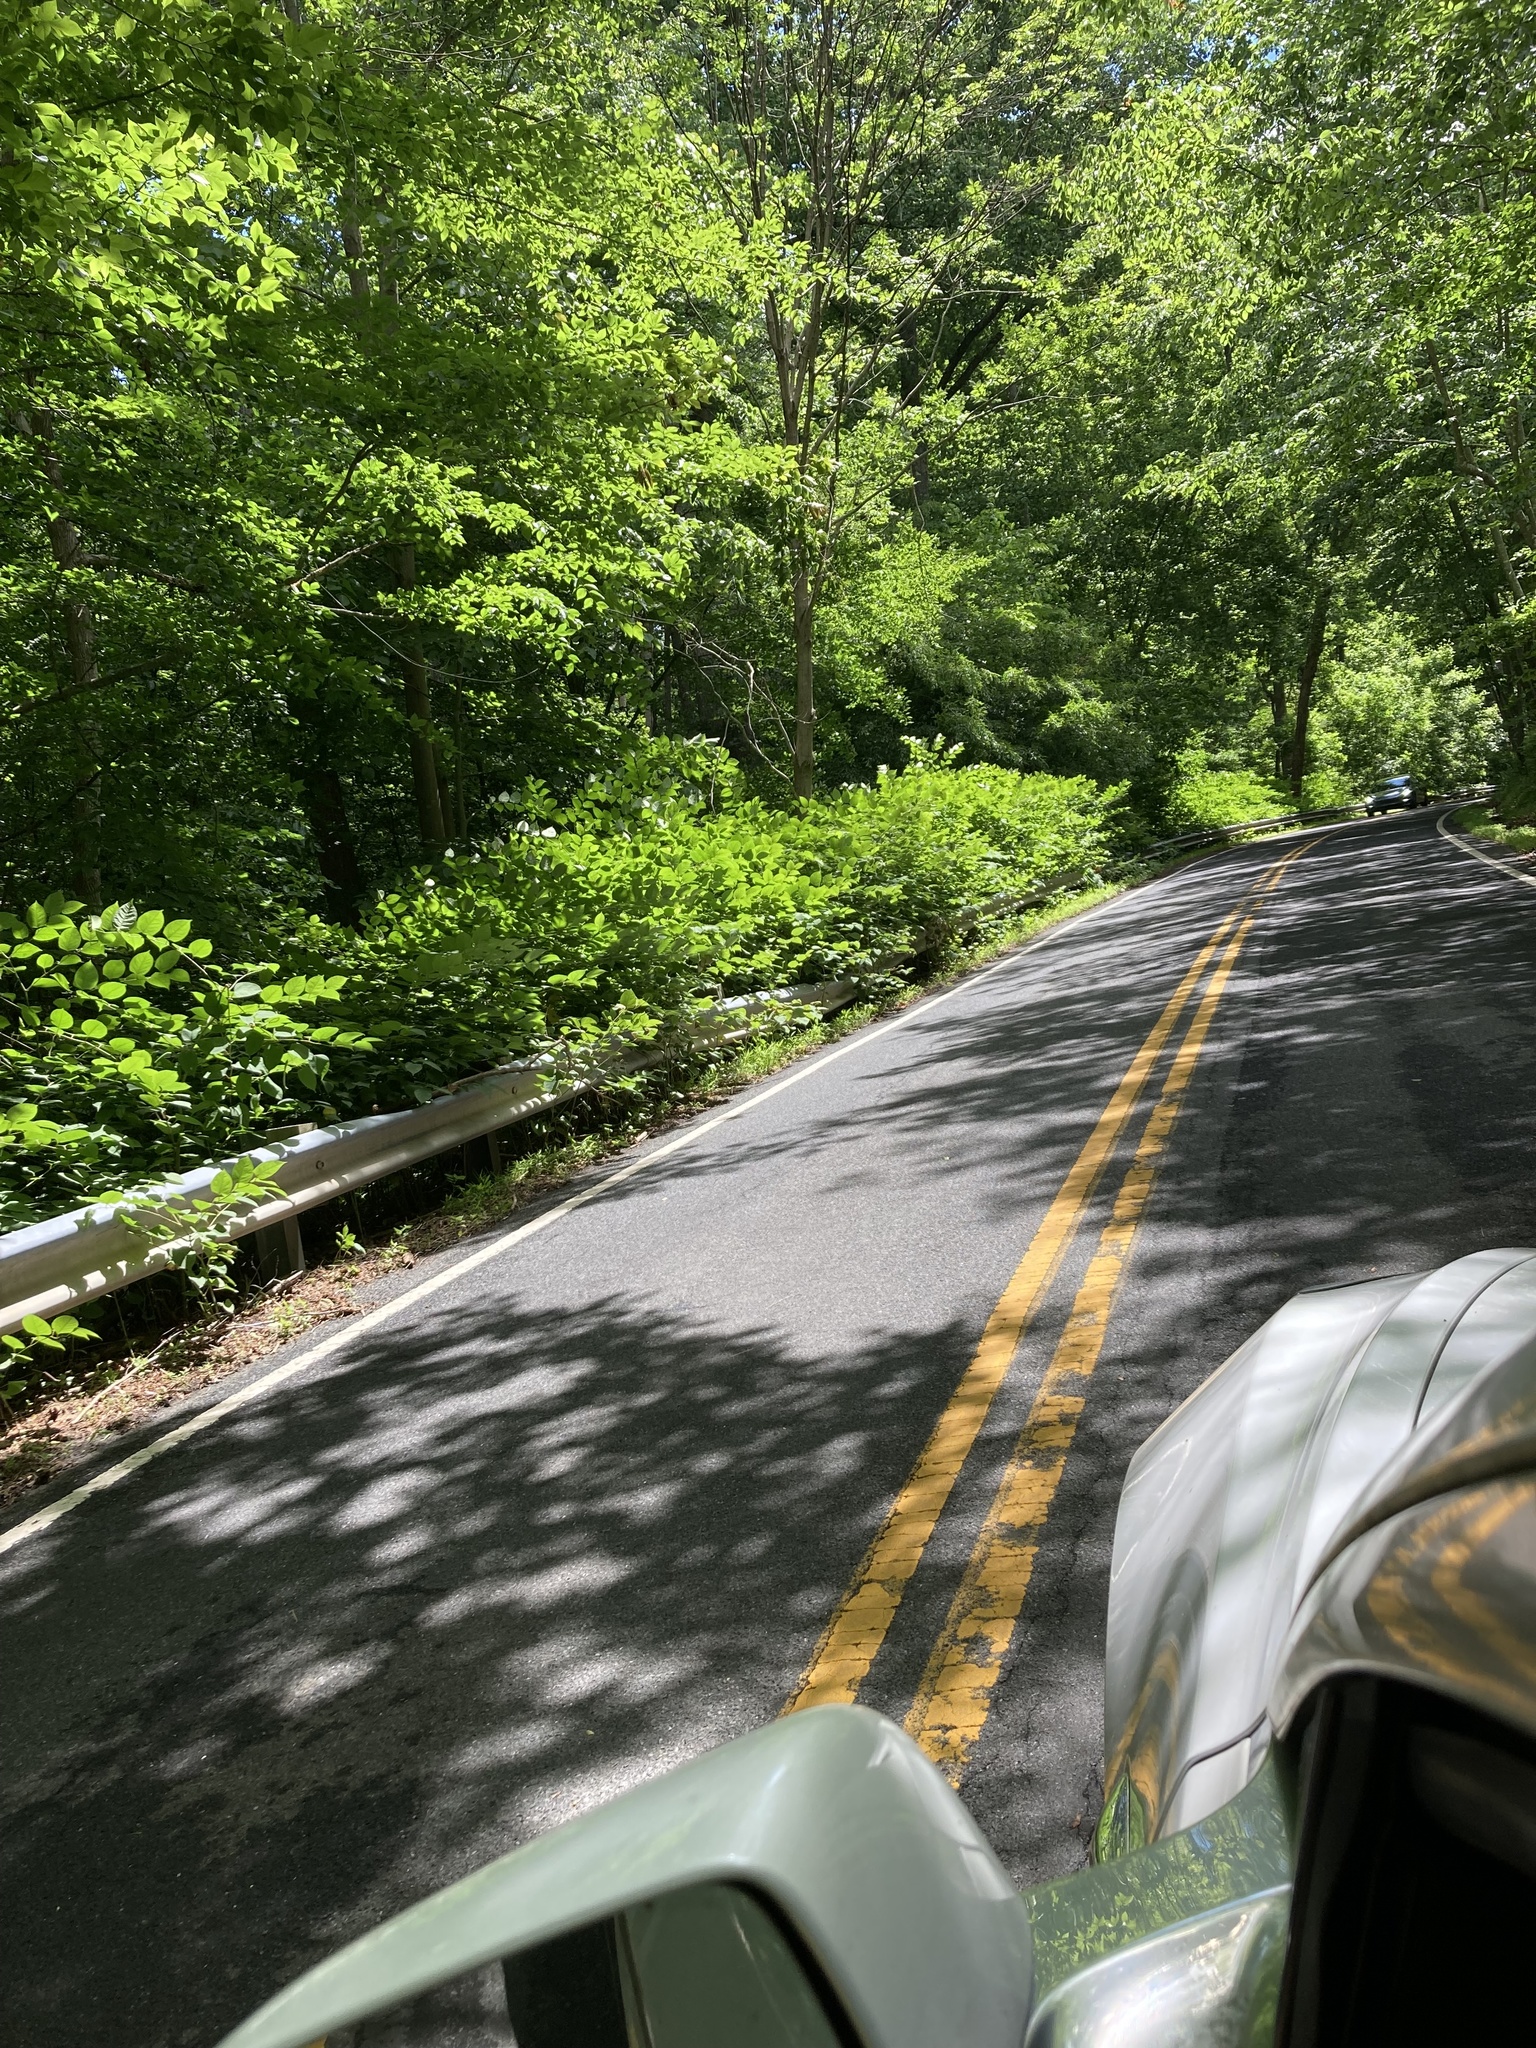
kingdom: Plantae
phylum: Tracheophyta
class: Magnoliopsida
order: Caryophyllales
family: Polygonaceae
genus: Reynoutria
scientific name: Reynoutria japonica
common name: Japanese knotweed
